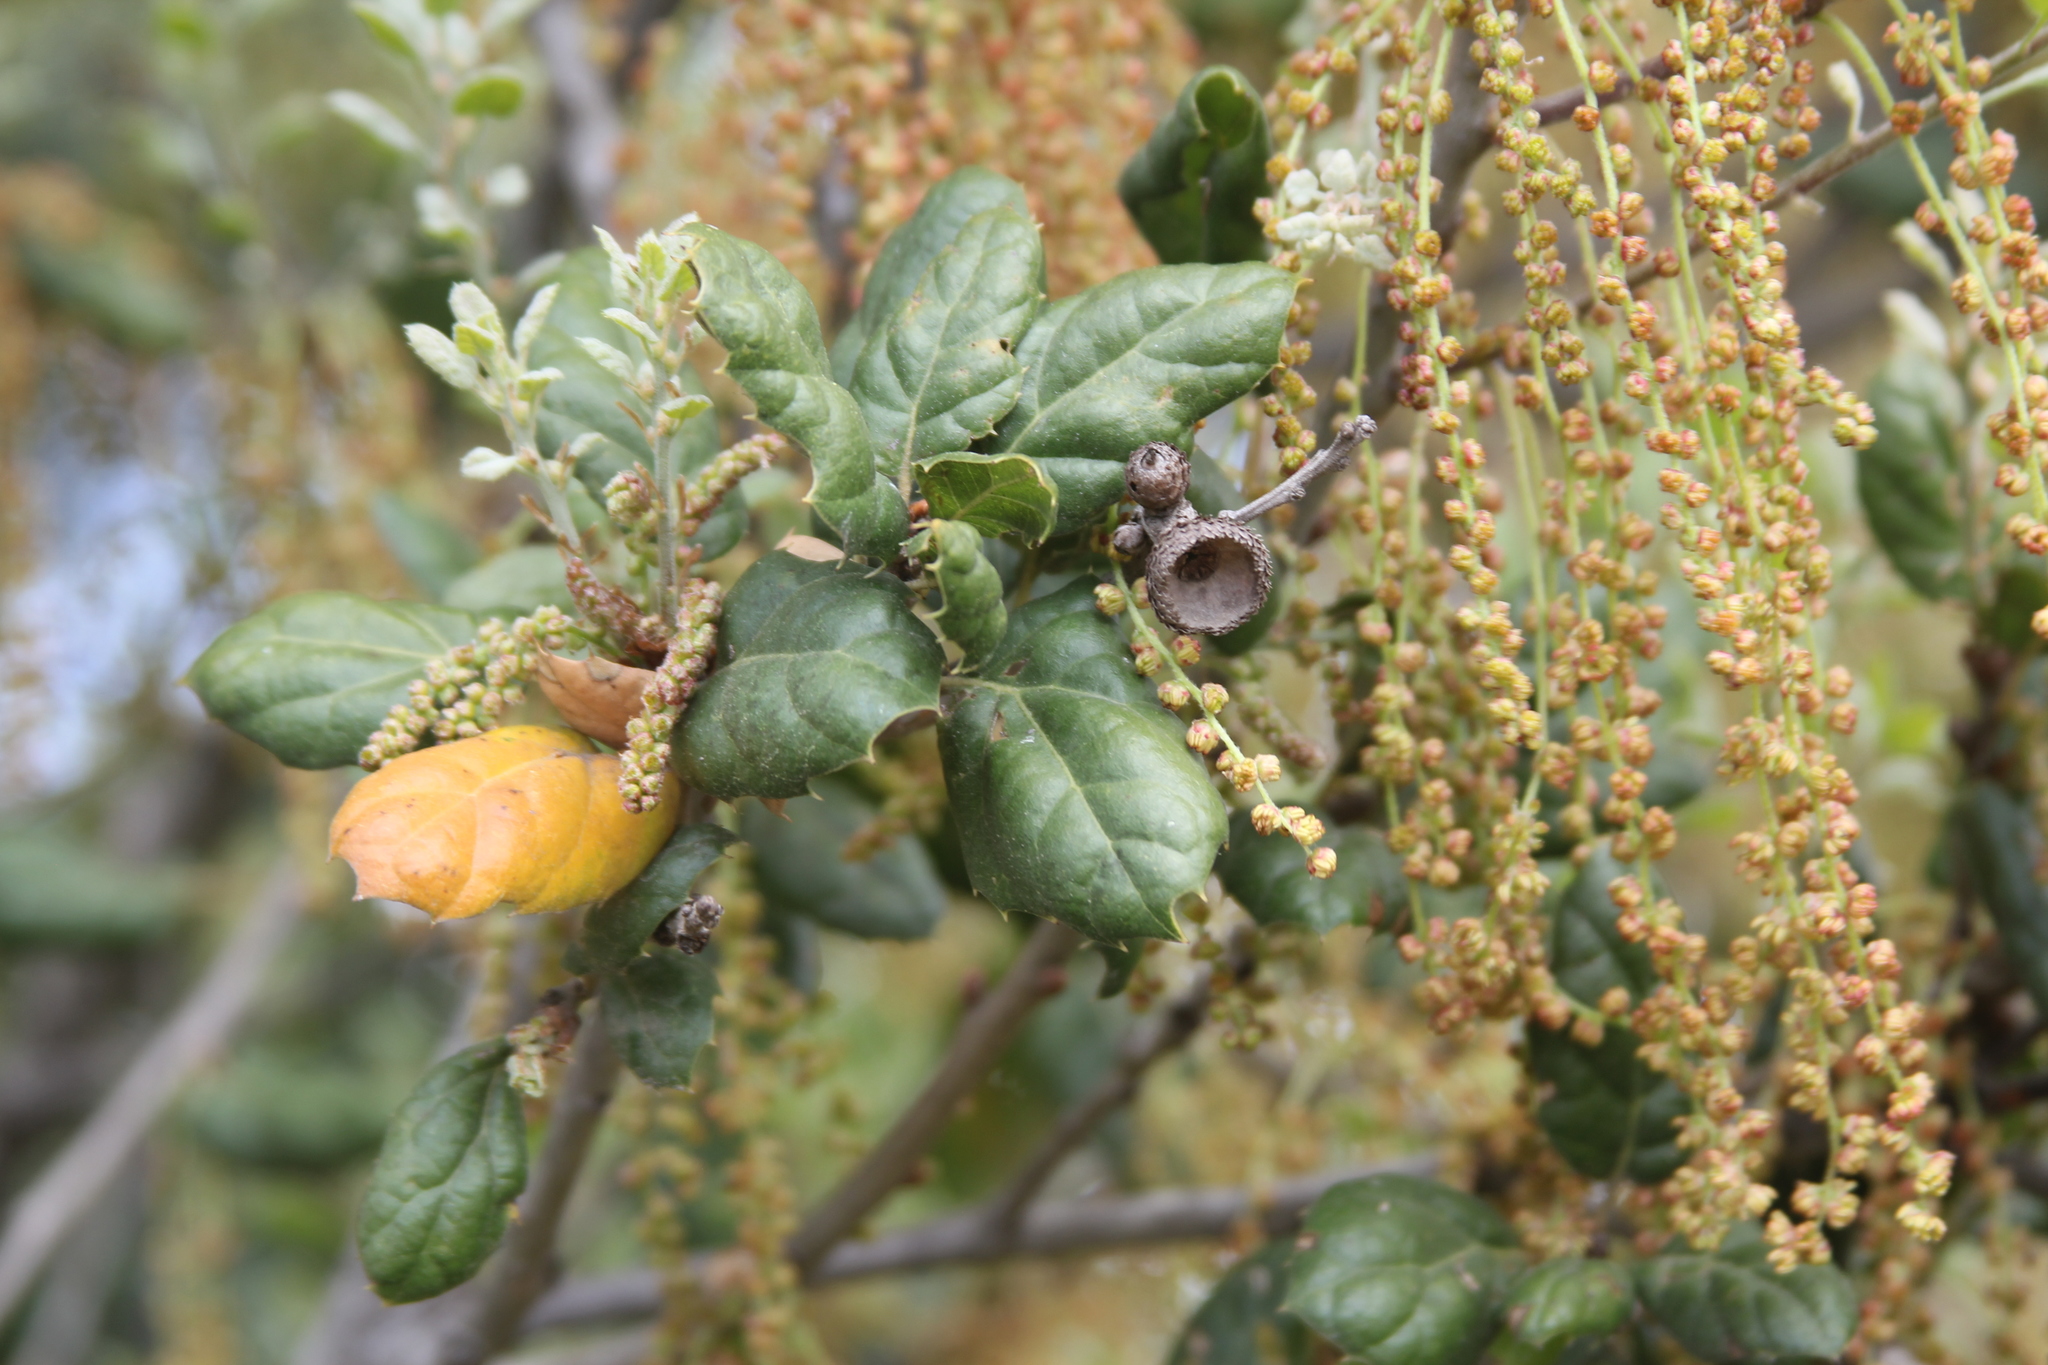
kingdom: Plantae
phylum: Tracheophyta
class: Magnoliopsida
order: Fagales
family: Fagaceae
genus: Quercus
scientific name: Quercus agrifolia
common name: California live oak
